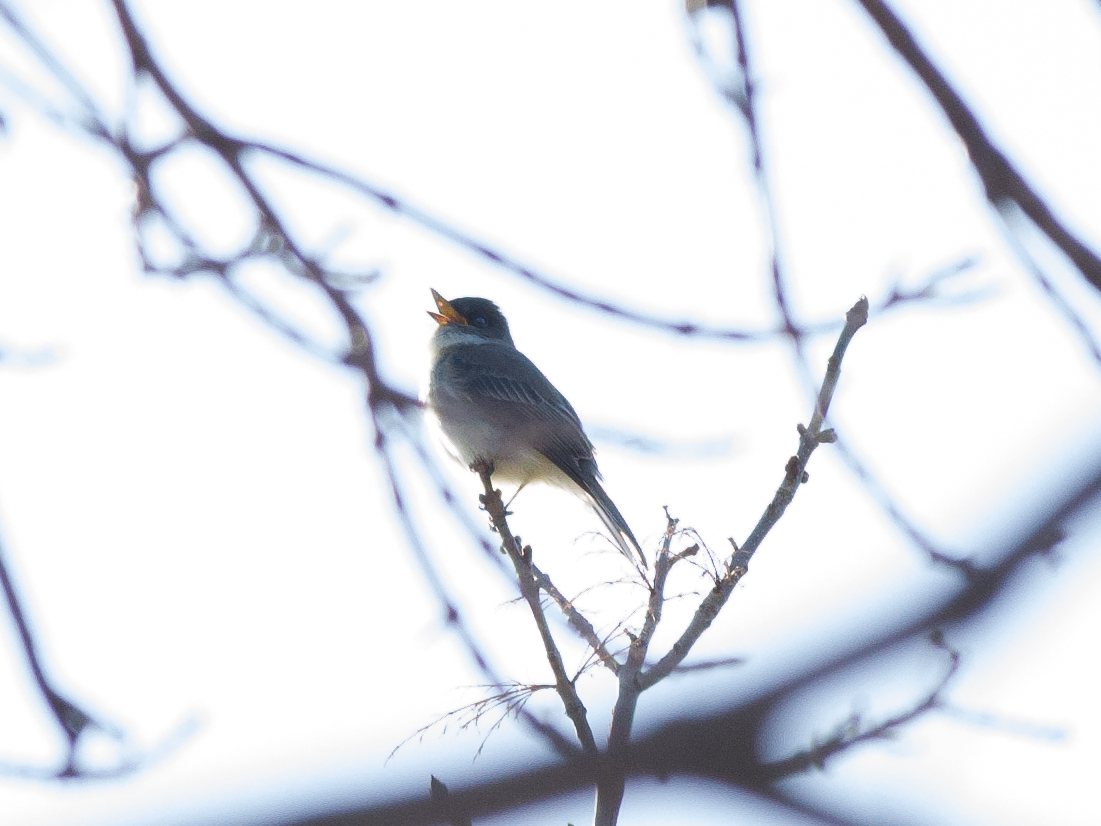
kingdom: Animalia
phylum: Chordata
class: Aves
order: Passeriformes
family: Tyrannidae
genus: Sayornis
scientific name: Sayornis phoebe
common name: Eastern phoebe
